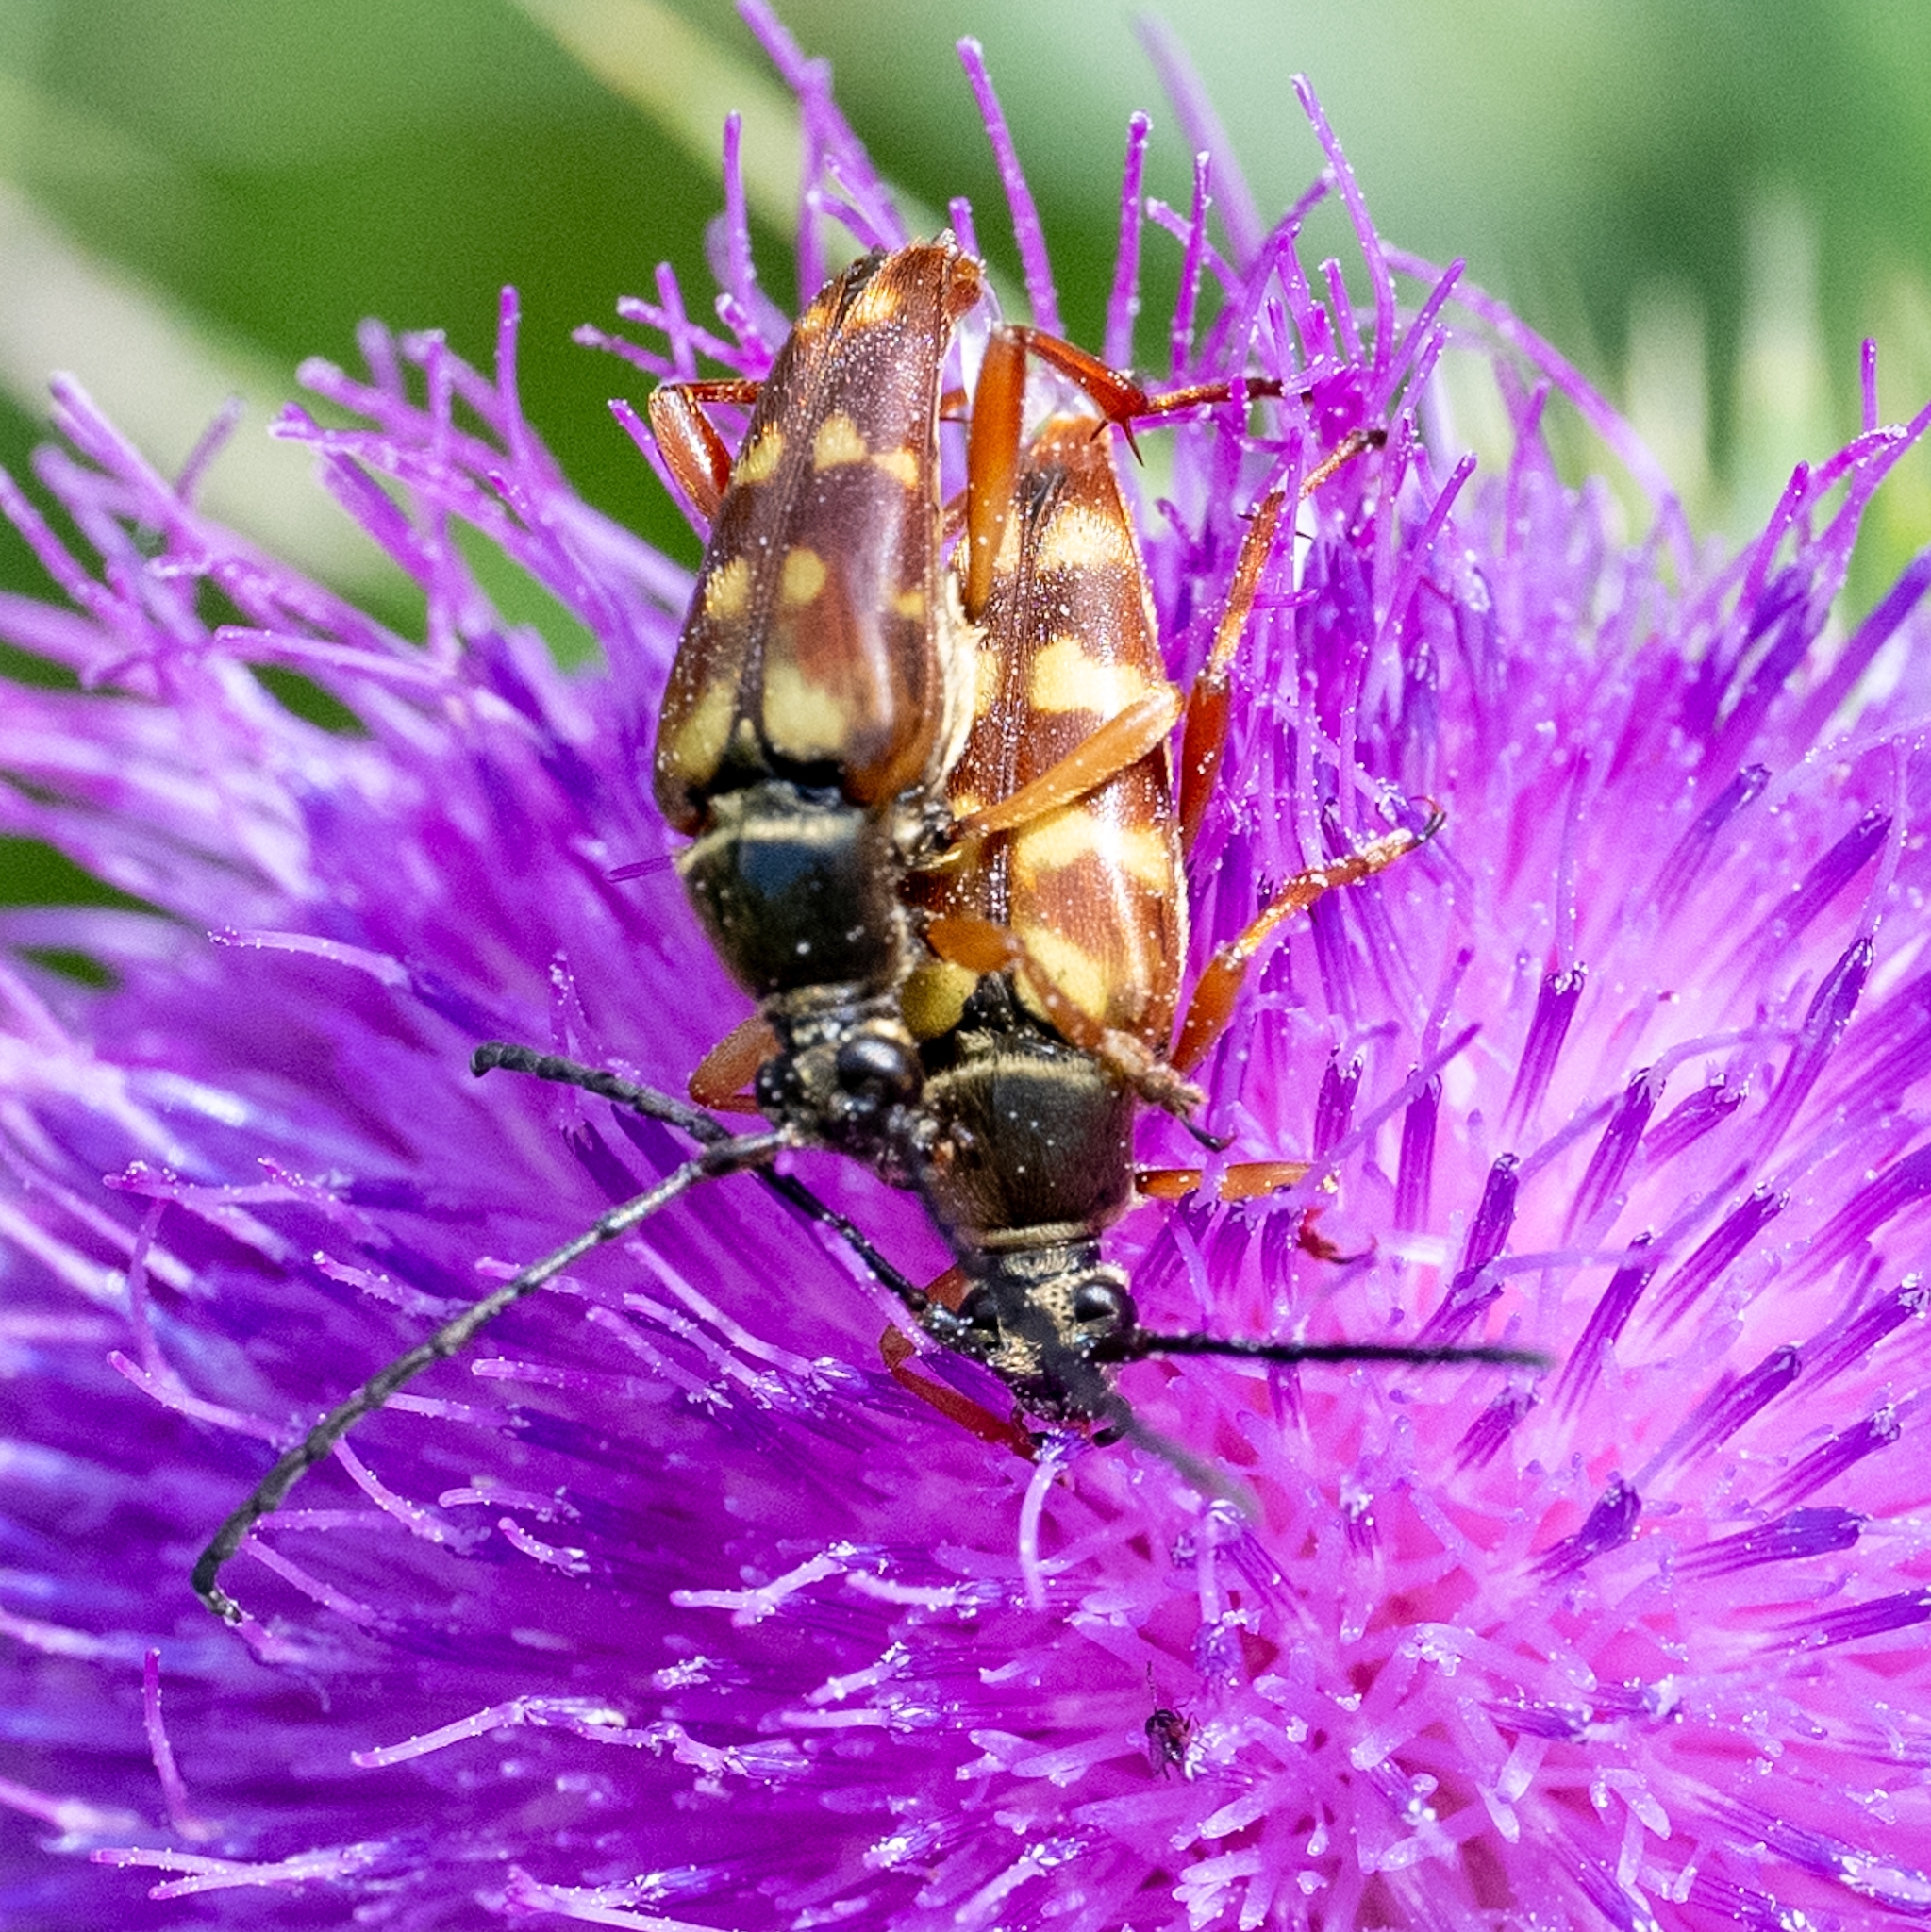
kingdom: Animalia
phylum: Arthropoda
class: Insecta
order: Coleoptera
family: Cerambycidae
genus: Typocerus
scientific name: Typocerus velutinus
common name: Banded longhorn beetle
